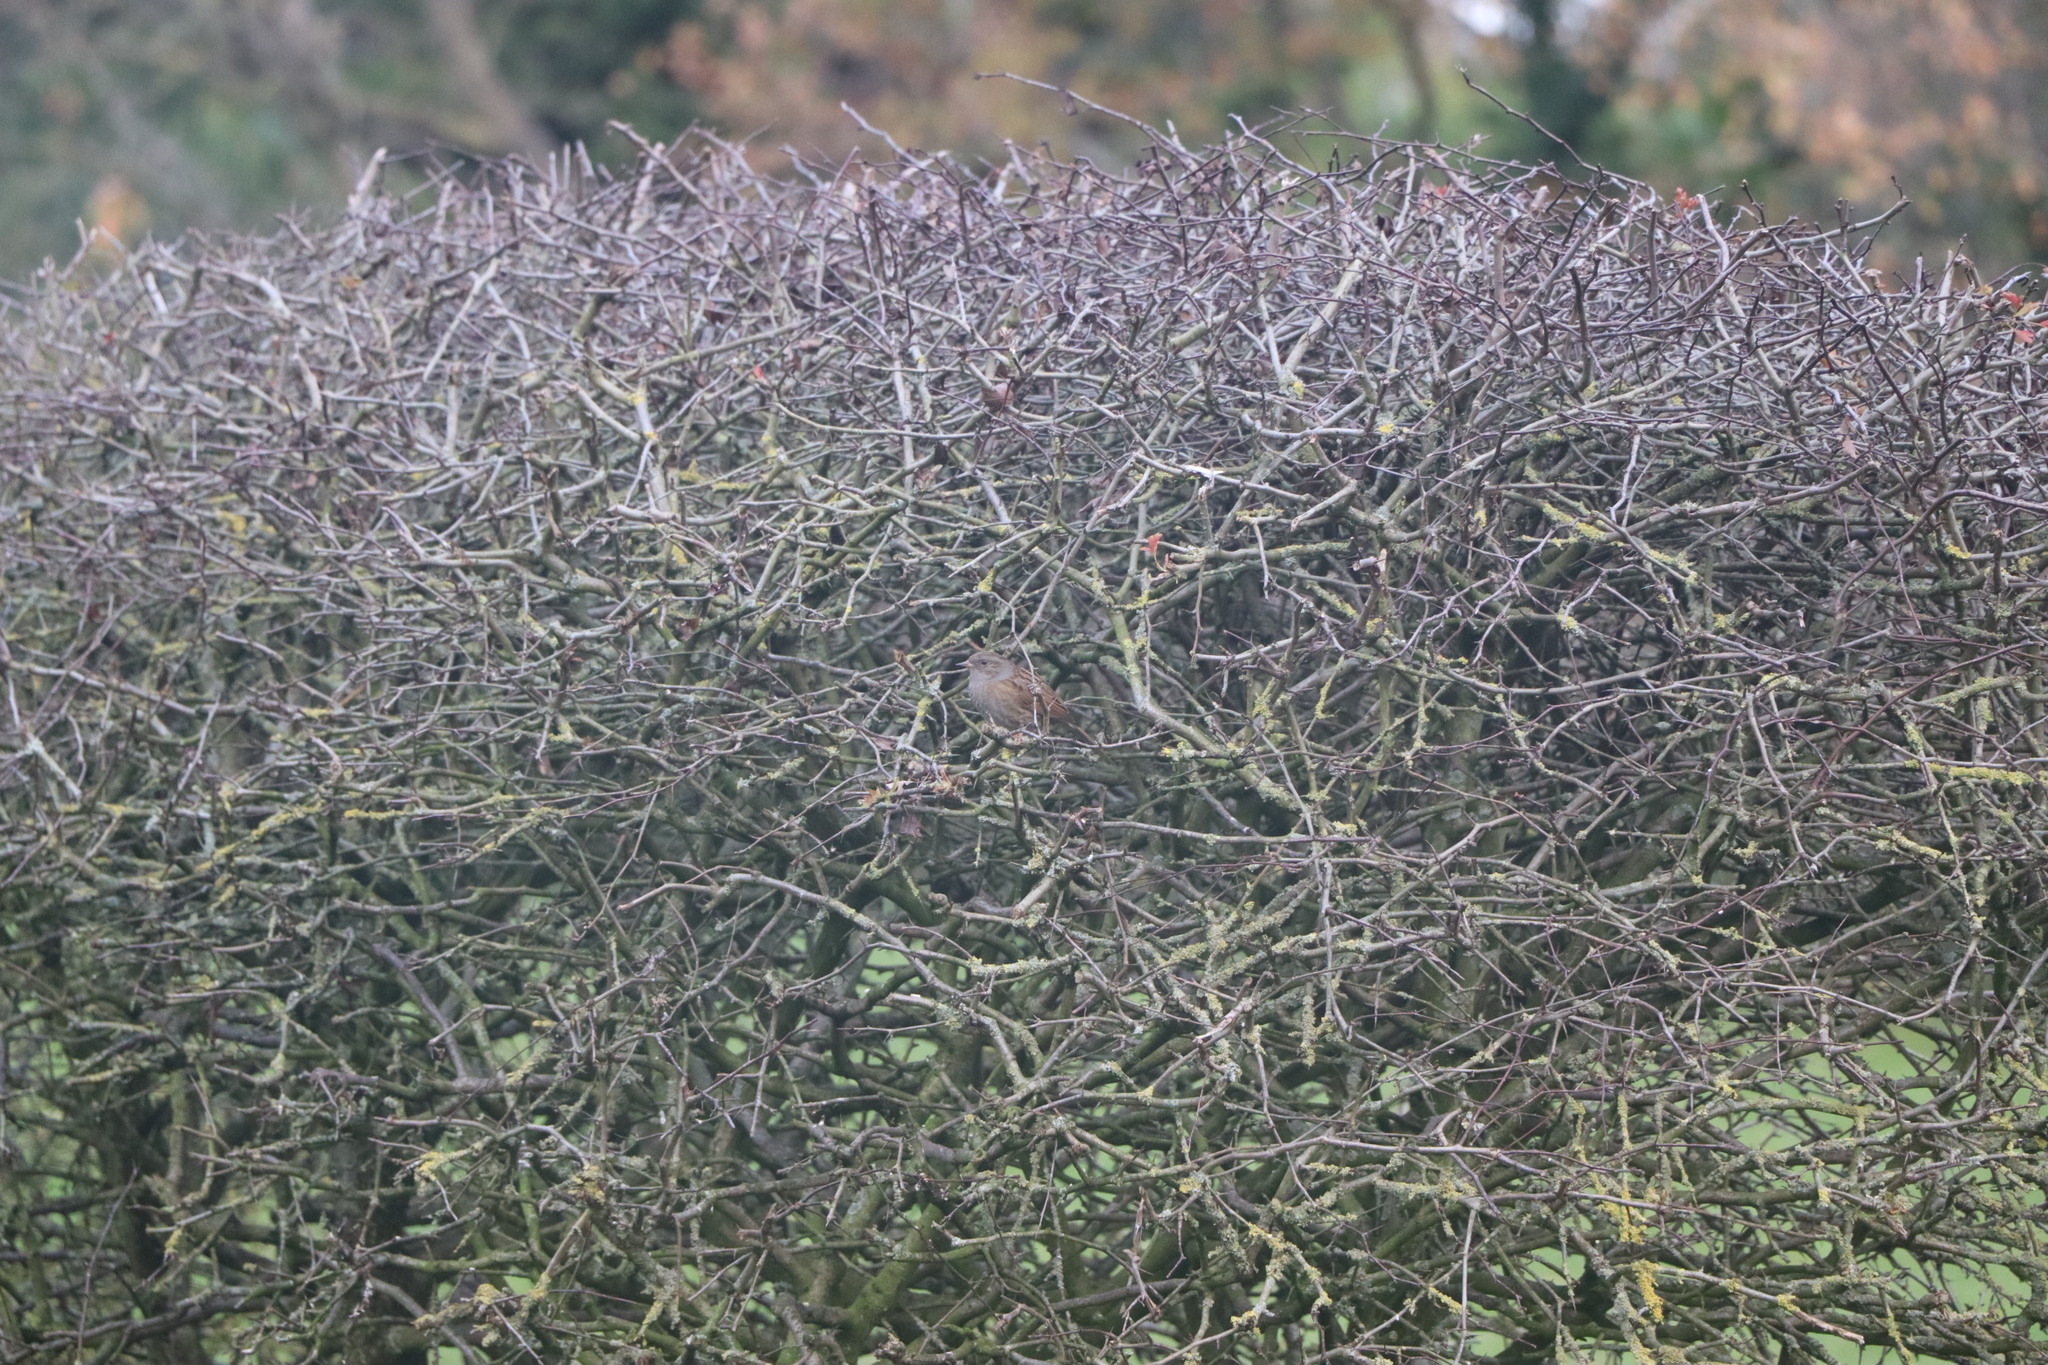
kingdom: Animalia
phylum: Chordata
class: Aves
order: Passeriformes
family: Prunellidae
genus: Prunella
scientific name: Prunella modularis
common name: Dunnock
